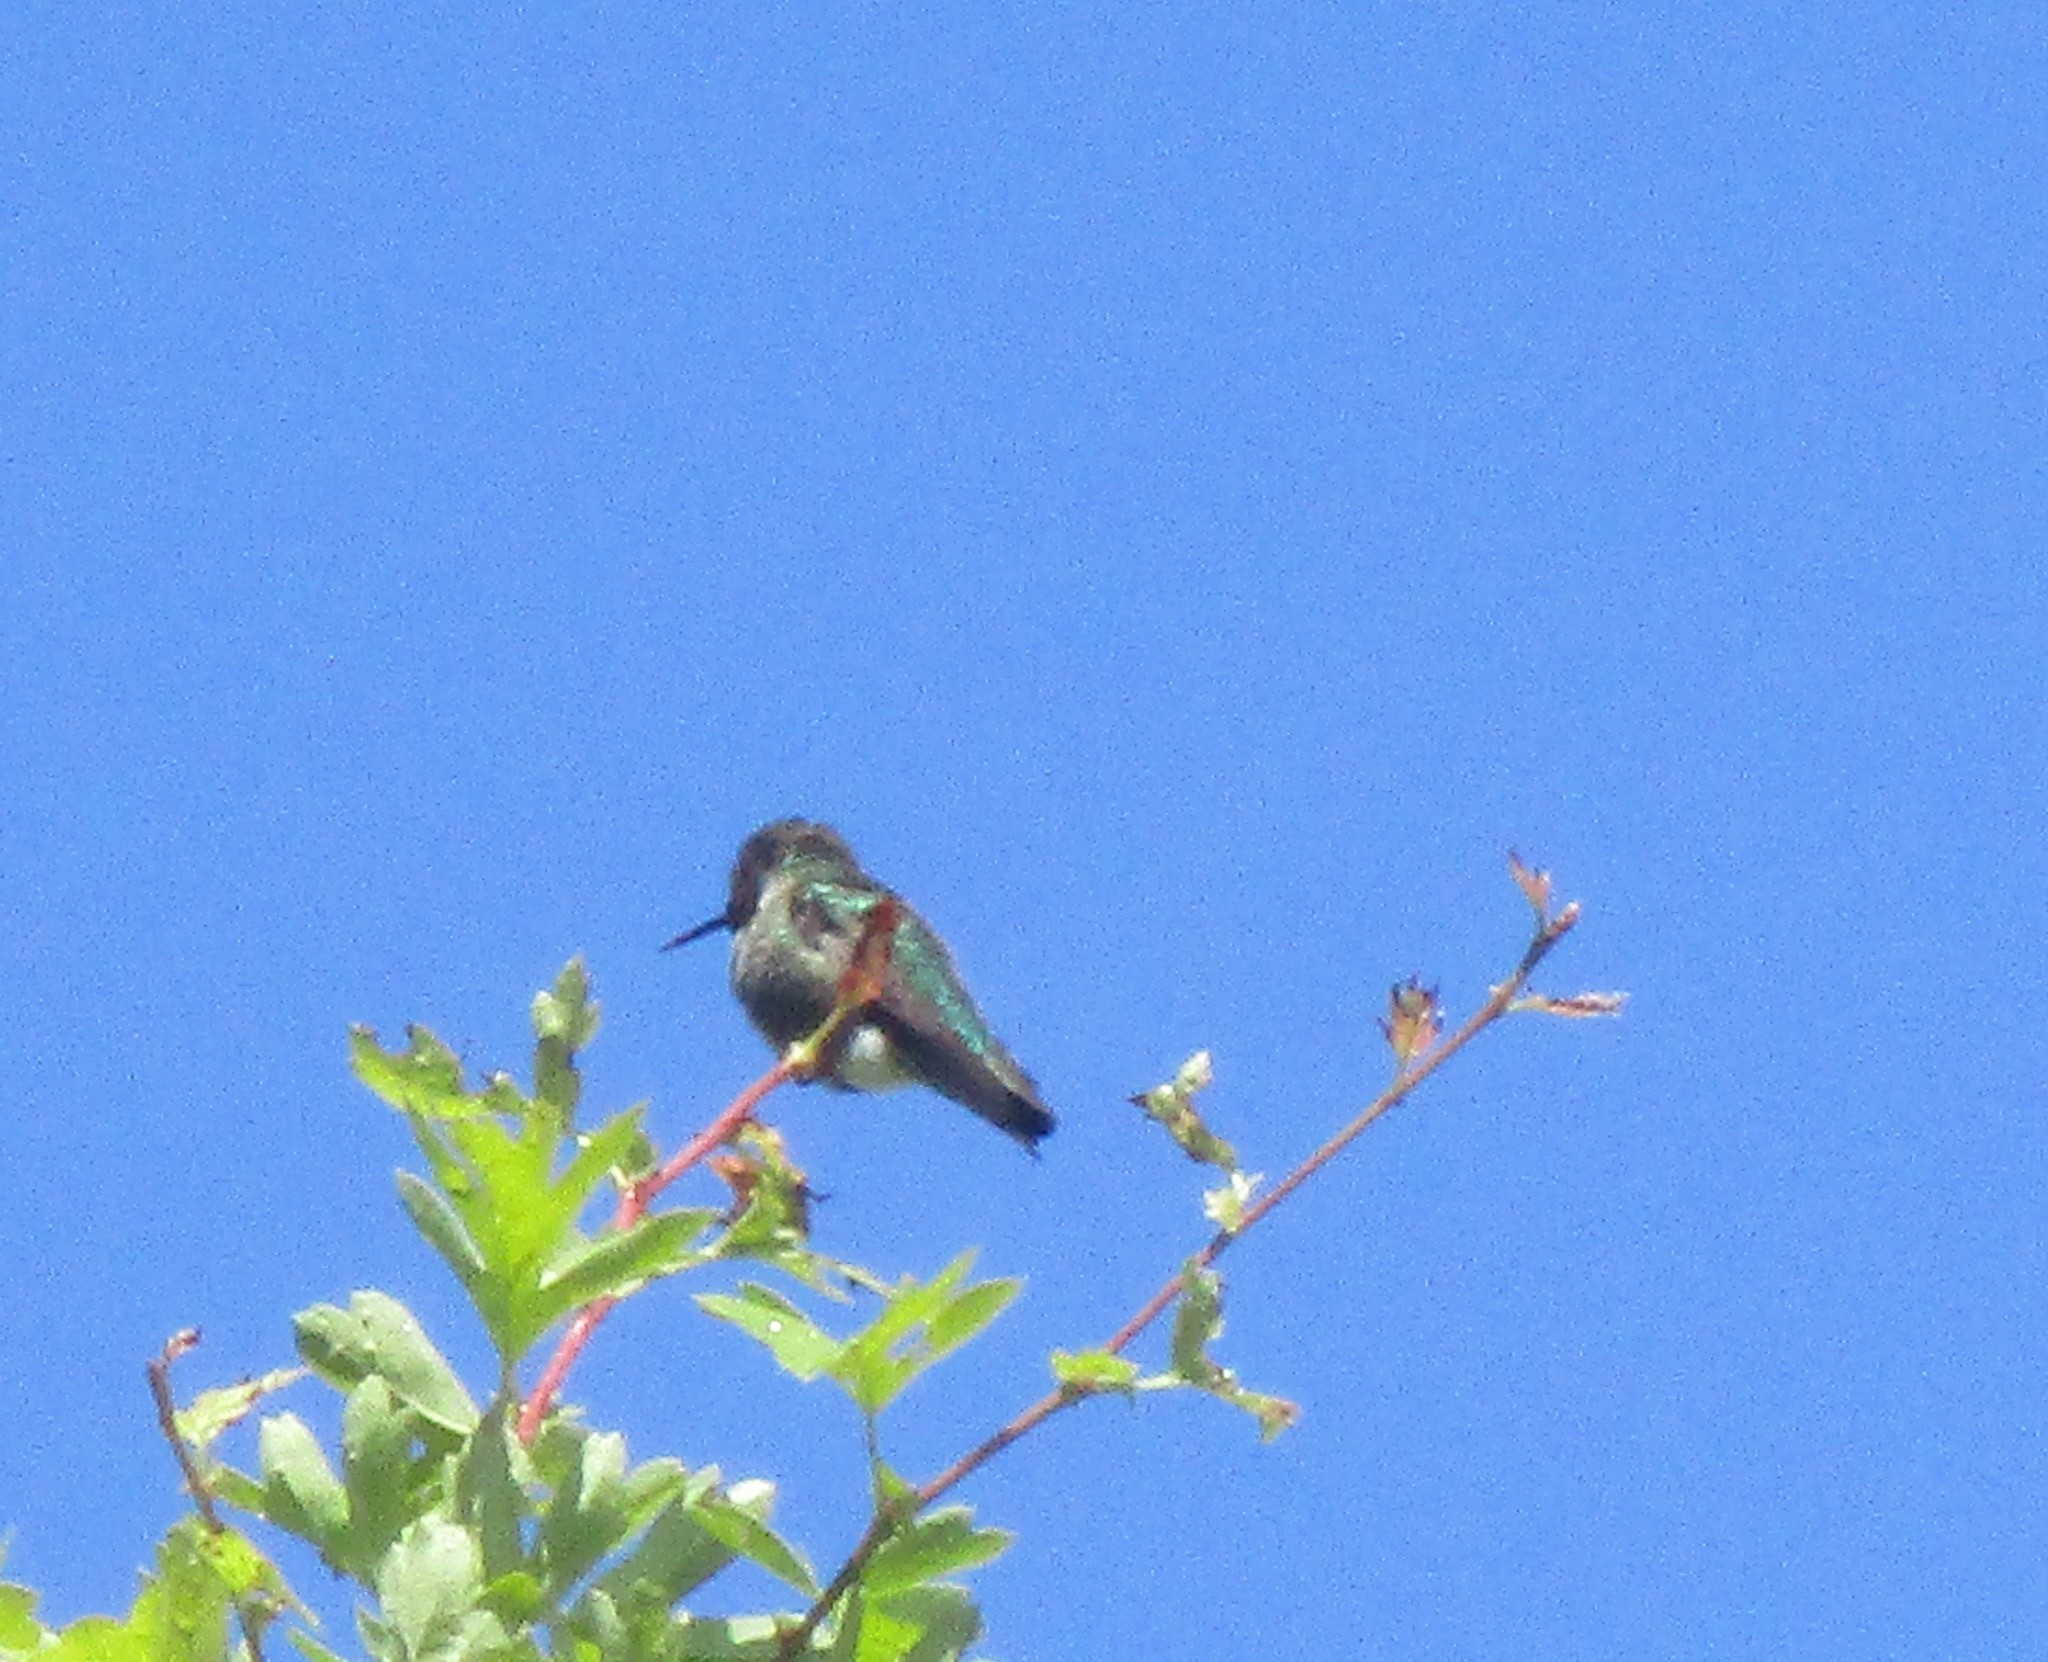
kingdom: Animalia
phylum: Chordata
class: Aves
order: Apodiformes
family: Trochilidae
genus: Calypte
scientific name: Calypte anna
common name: Anna's hummingbird
